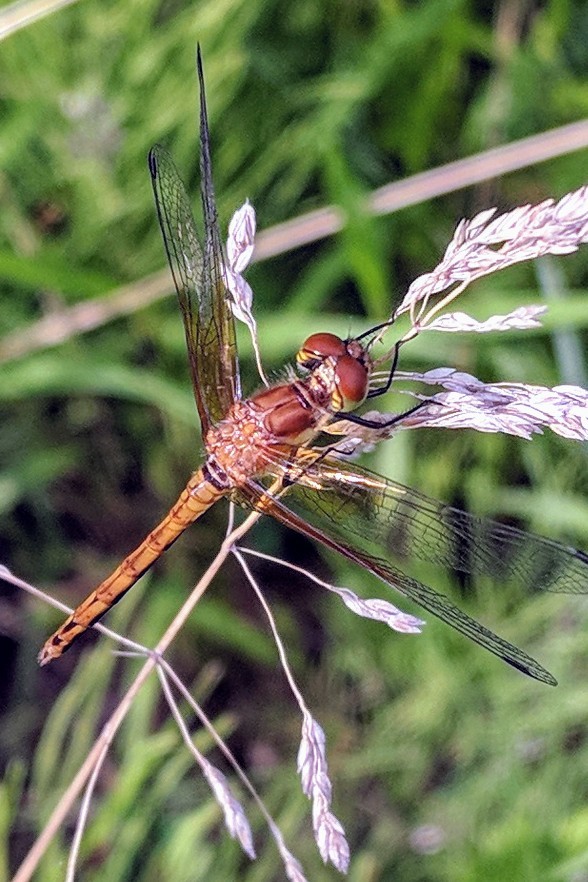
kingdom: Animalia
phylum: Arthropoda
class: Insecta
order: Odonata
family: Libellulidae
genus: Sympetrum
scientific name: Sympetrum semicinctum
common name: Band-winged meadowhawk
